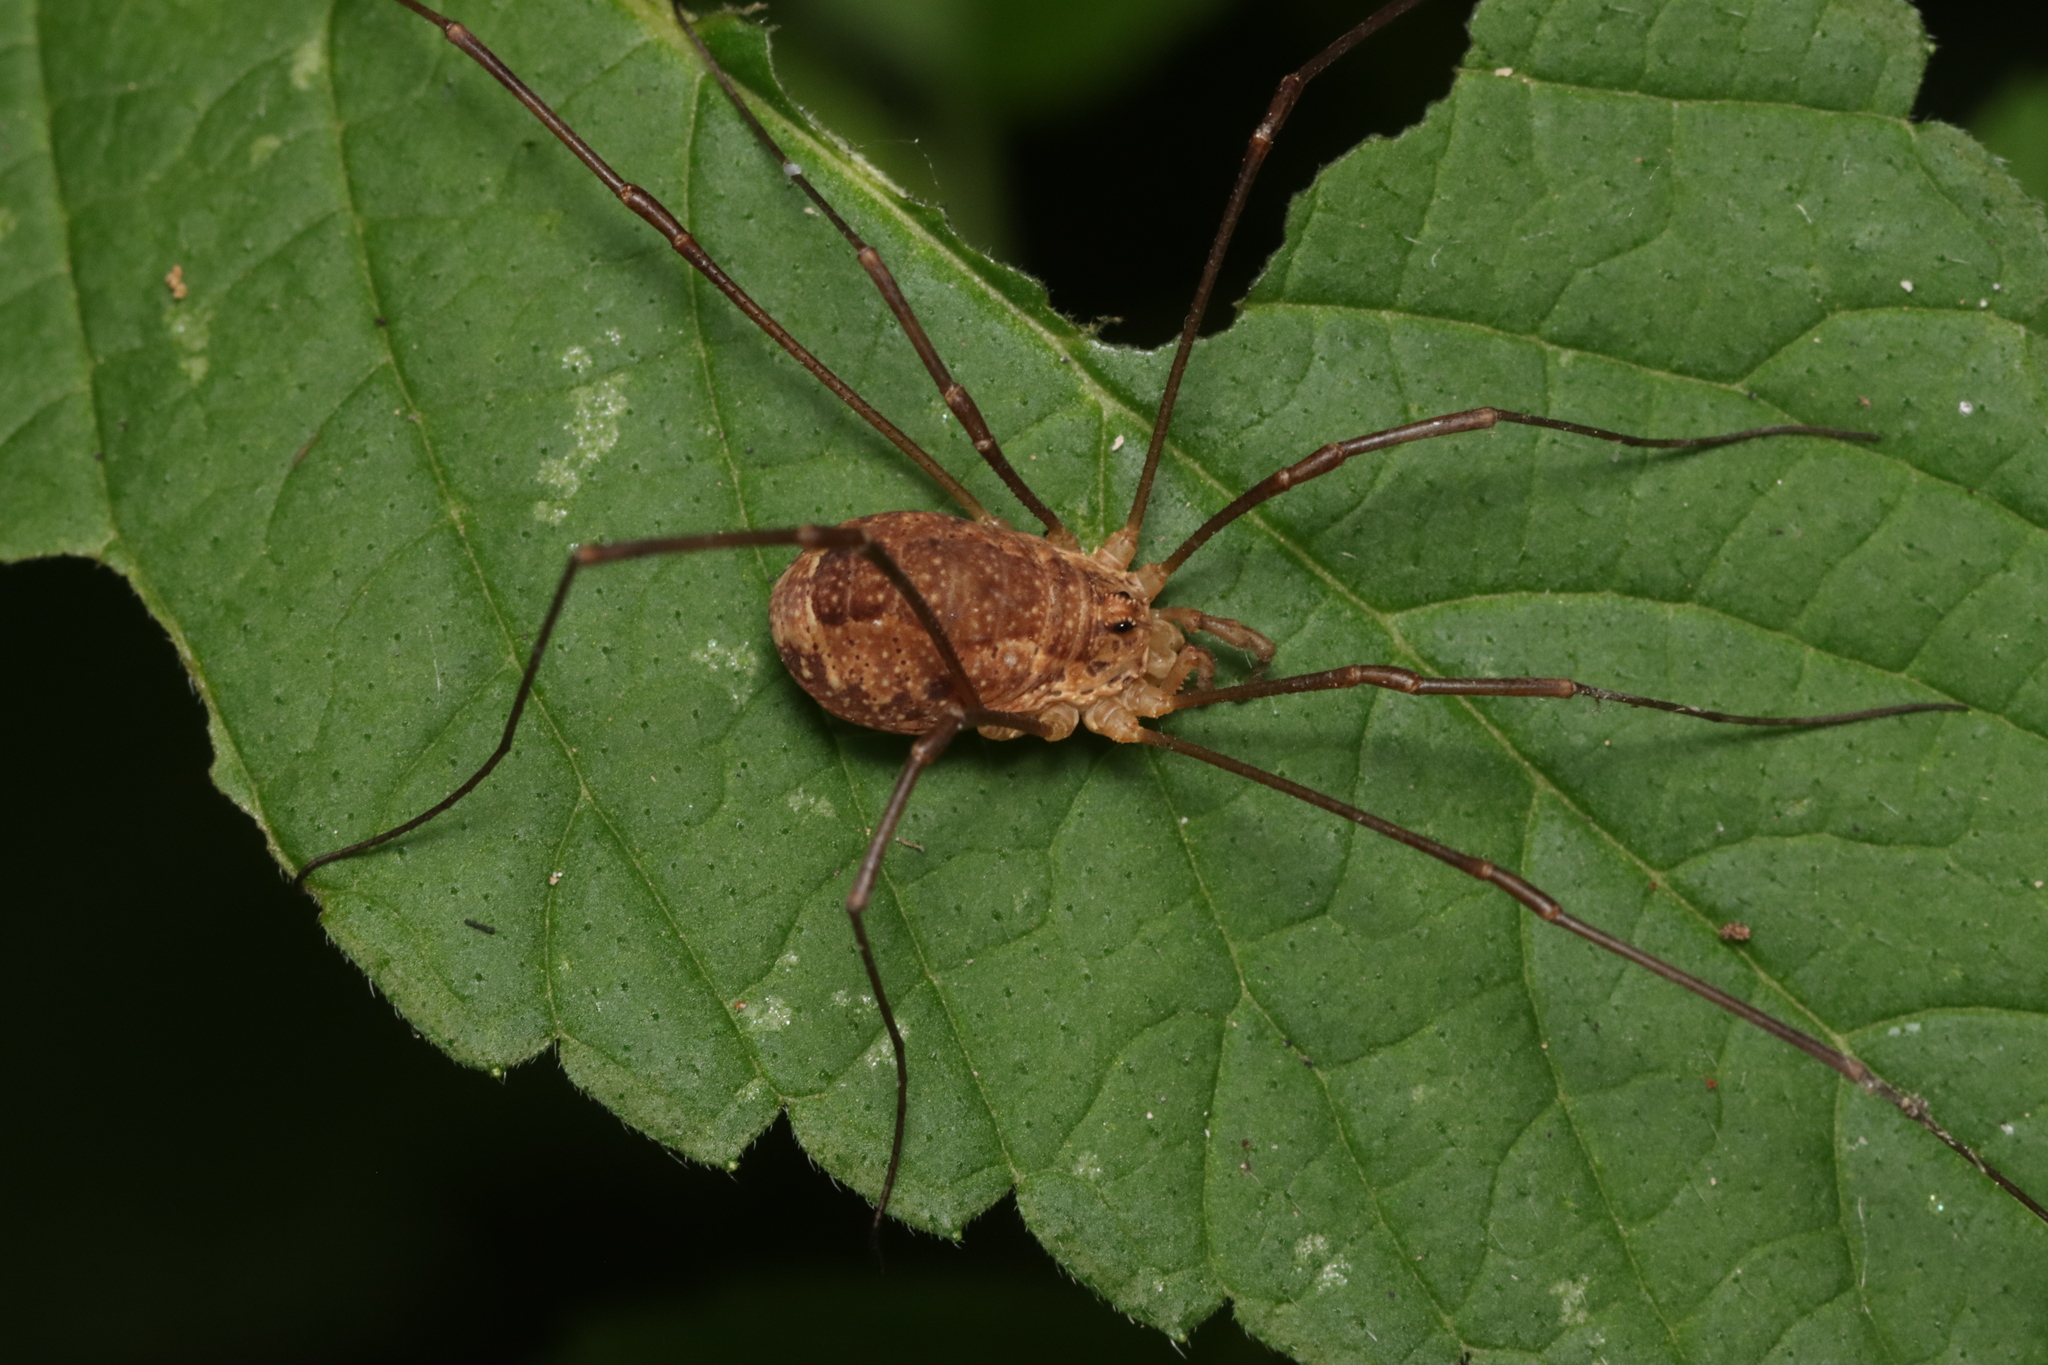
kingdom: Animalia
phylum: Arthropoda
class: Arachnida
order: Opiliones
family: Phalangiidae
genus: Rilaena
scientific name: Rilaena triangularis
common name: Spring harvestman
